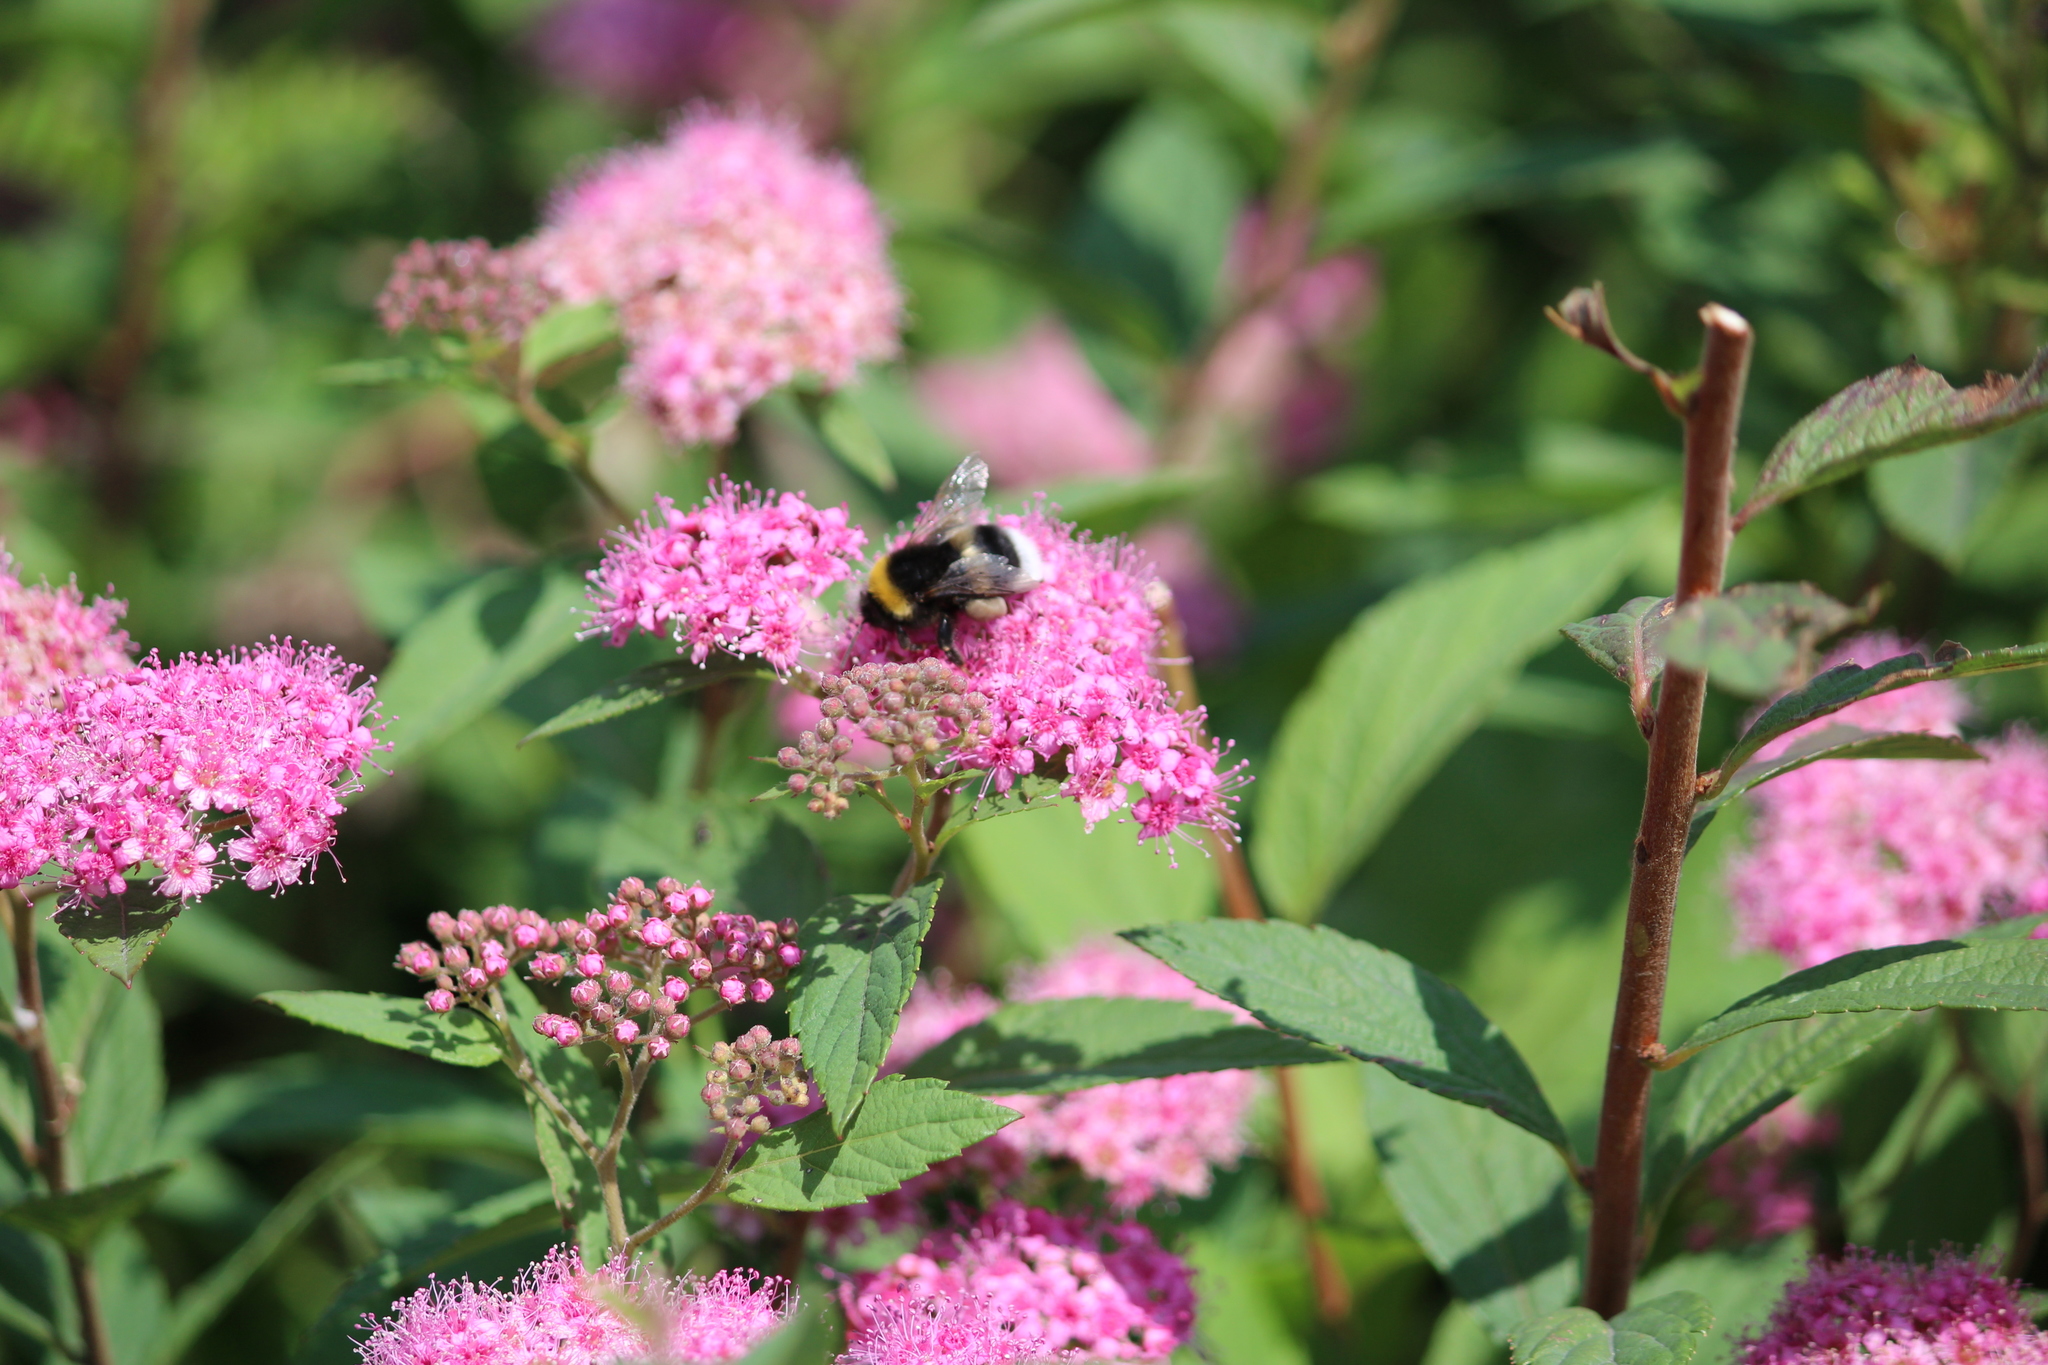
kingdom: Animalia
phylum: Arthropoda
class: Insecta
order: Hymenoptera
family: Apidae
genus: Bombus
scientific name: Bombus
